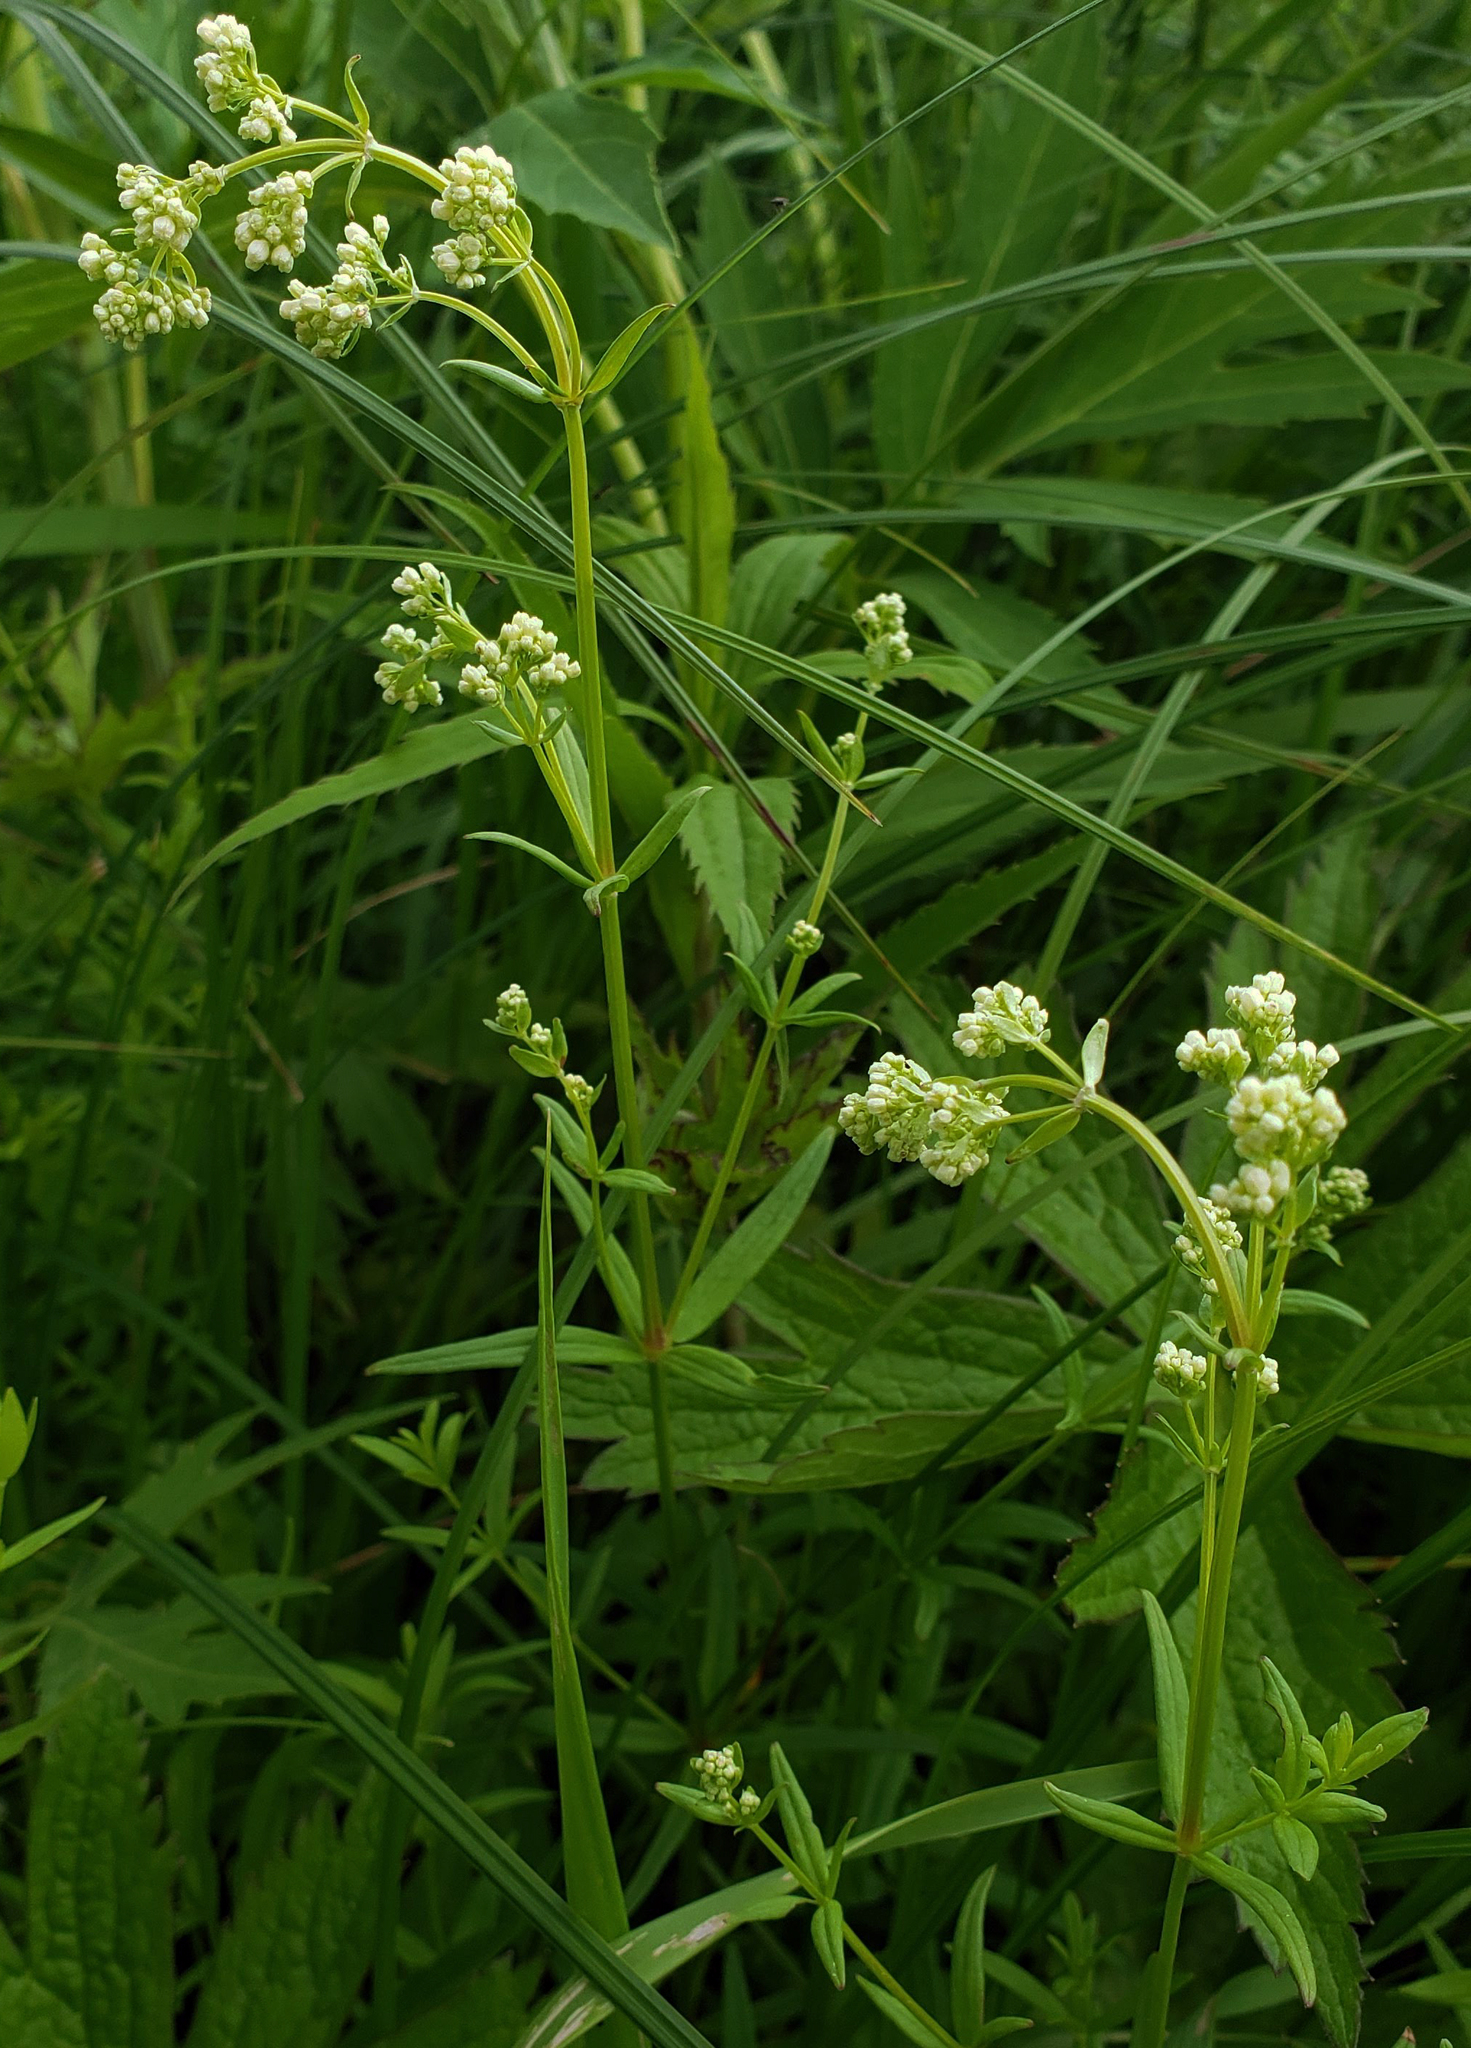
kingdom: Plantae
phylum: Tracheophyta
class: Magnoliopsida
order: Gentianales
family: Rubiaceae
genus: Galium
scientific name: Galium boreale
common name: Northern bedstraw
